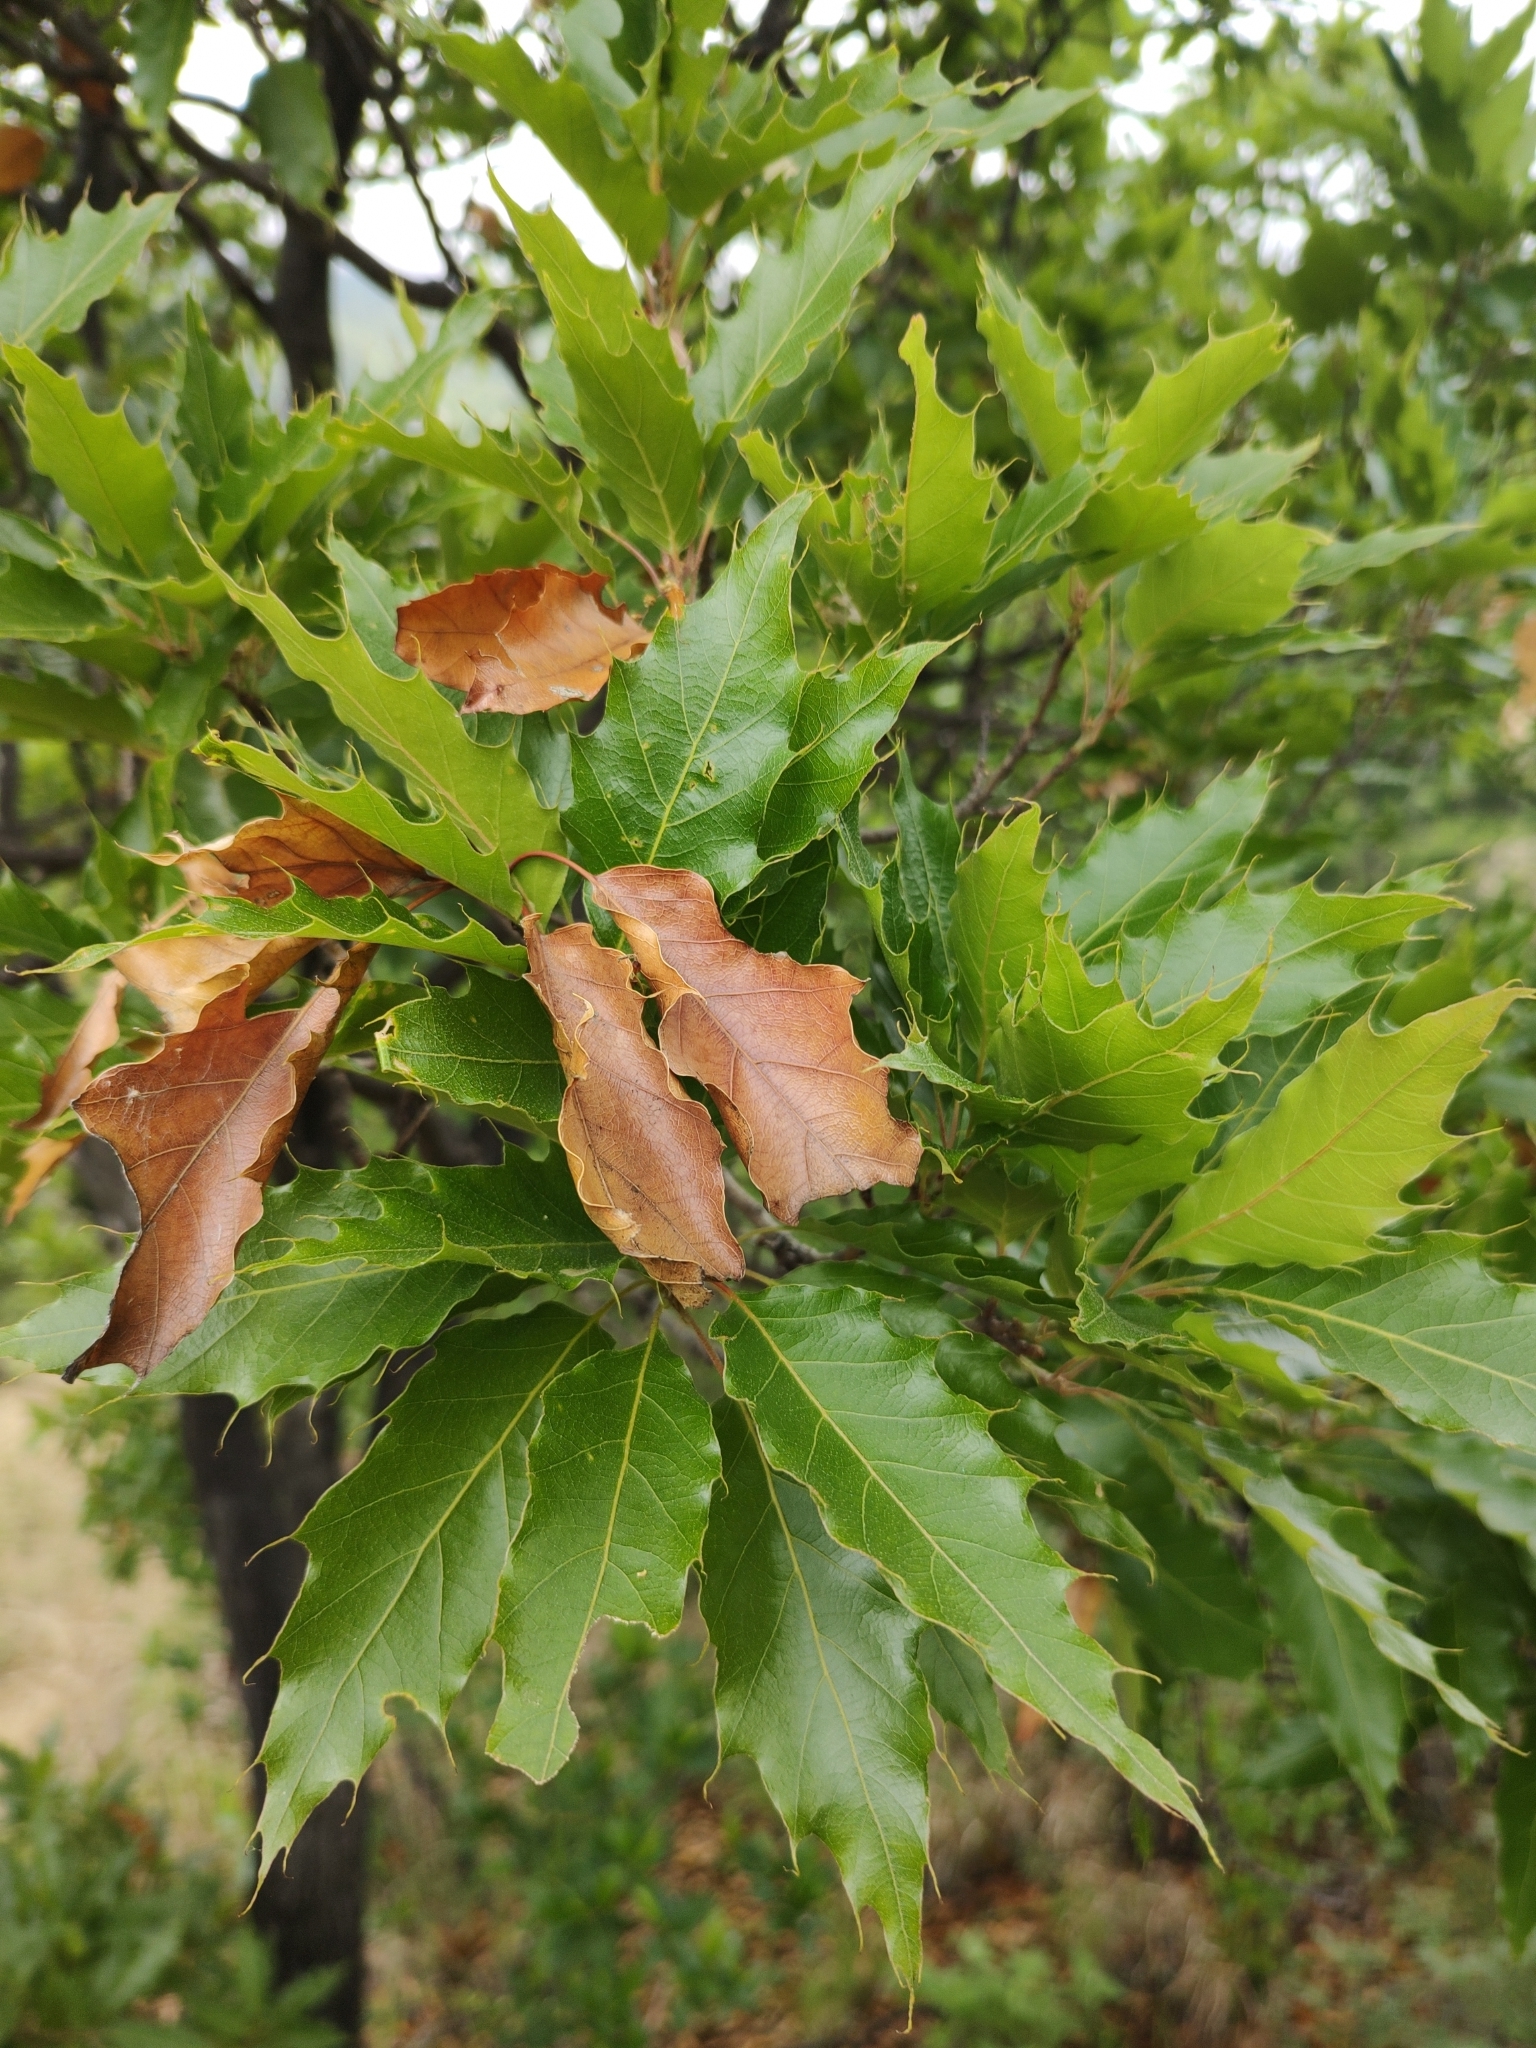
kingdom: Plantae
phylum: Tracheophyta
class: Magnoliopsida
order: Fagales
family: Fagaceae
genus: Quercus
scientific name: Quercus albocincta
